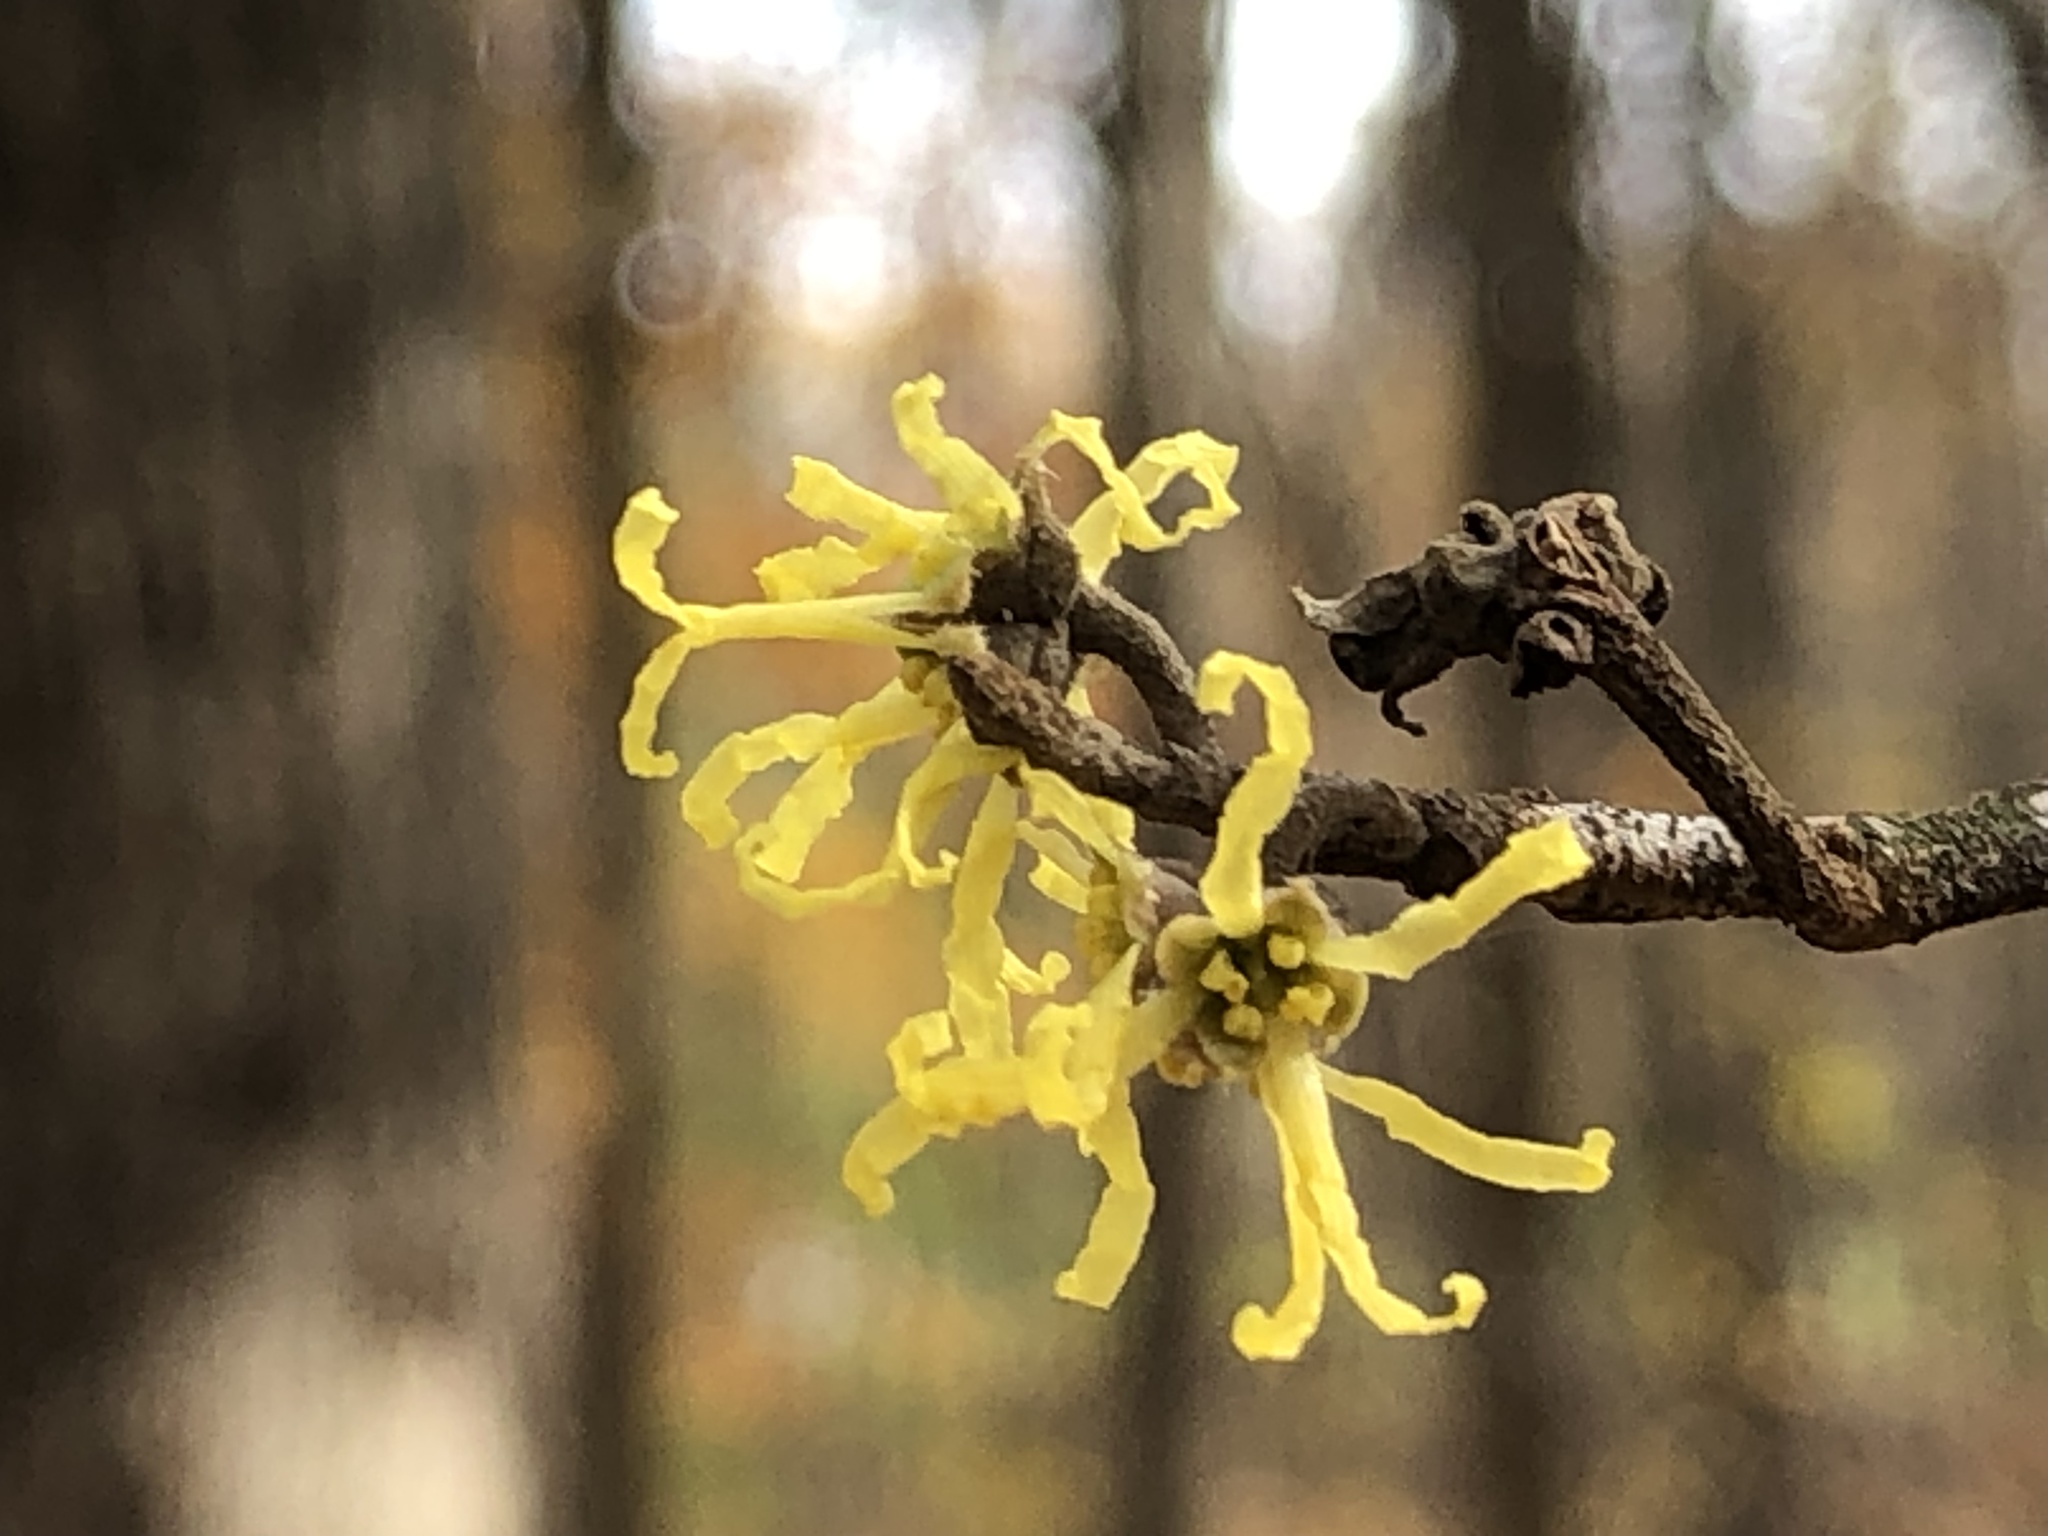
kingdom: Plantae
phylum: Tracheophyta
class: Magnoliopsida
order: Saxifragales
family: Hamamelidaceae
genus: Hamamelis
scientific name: Hamamelis virginiana
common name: Witch-hazel
